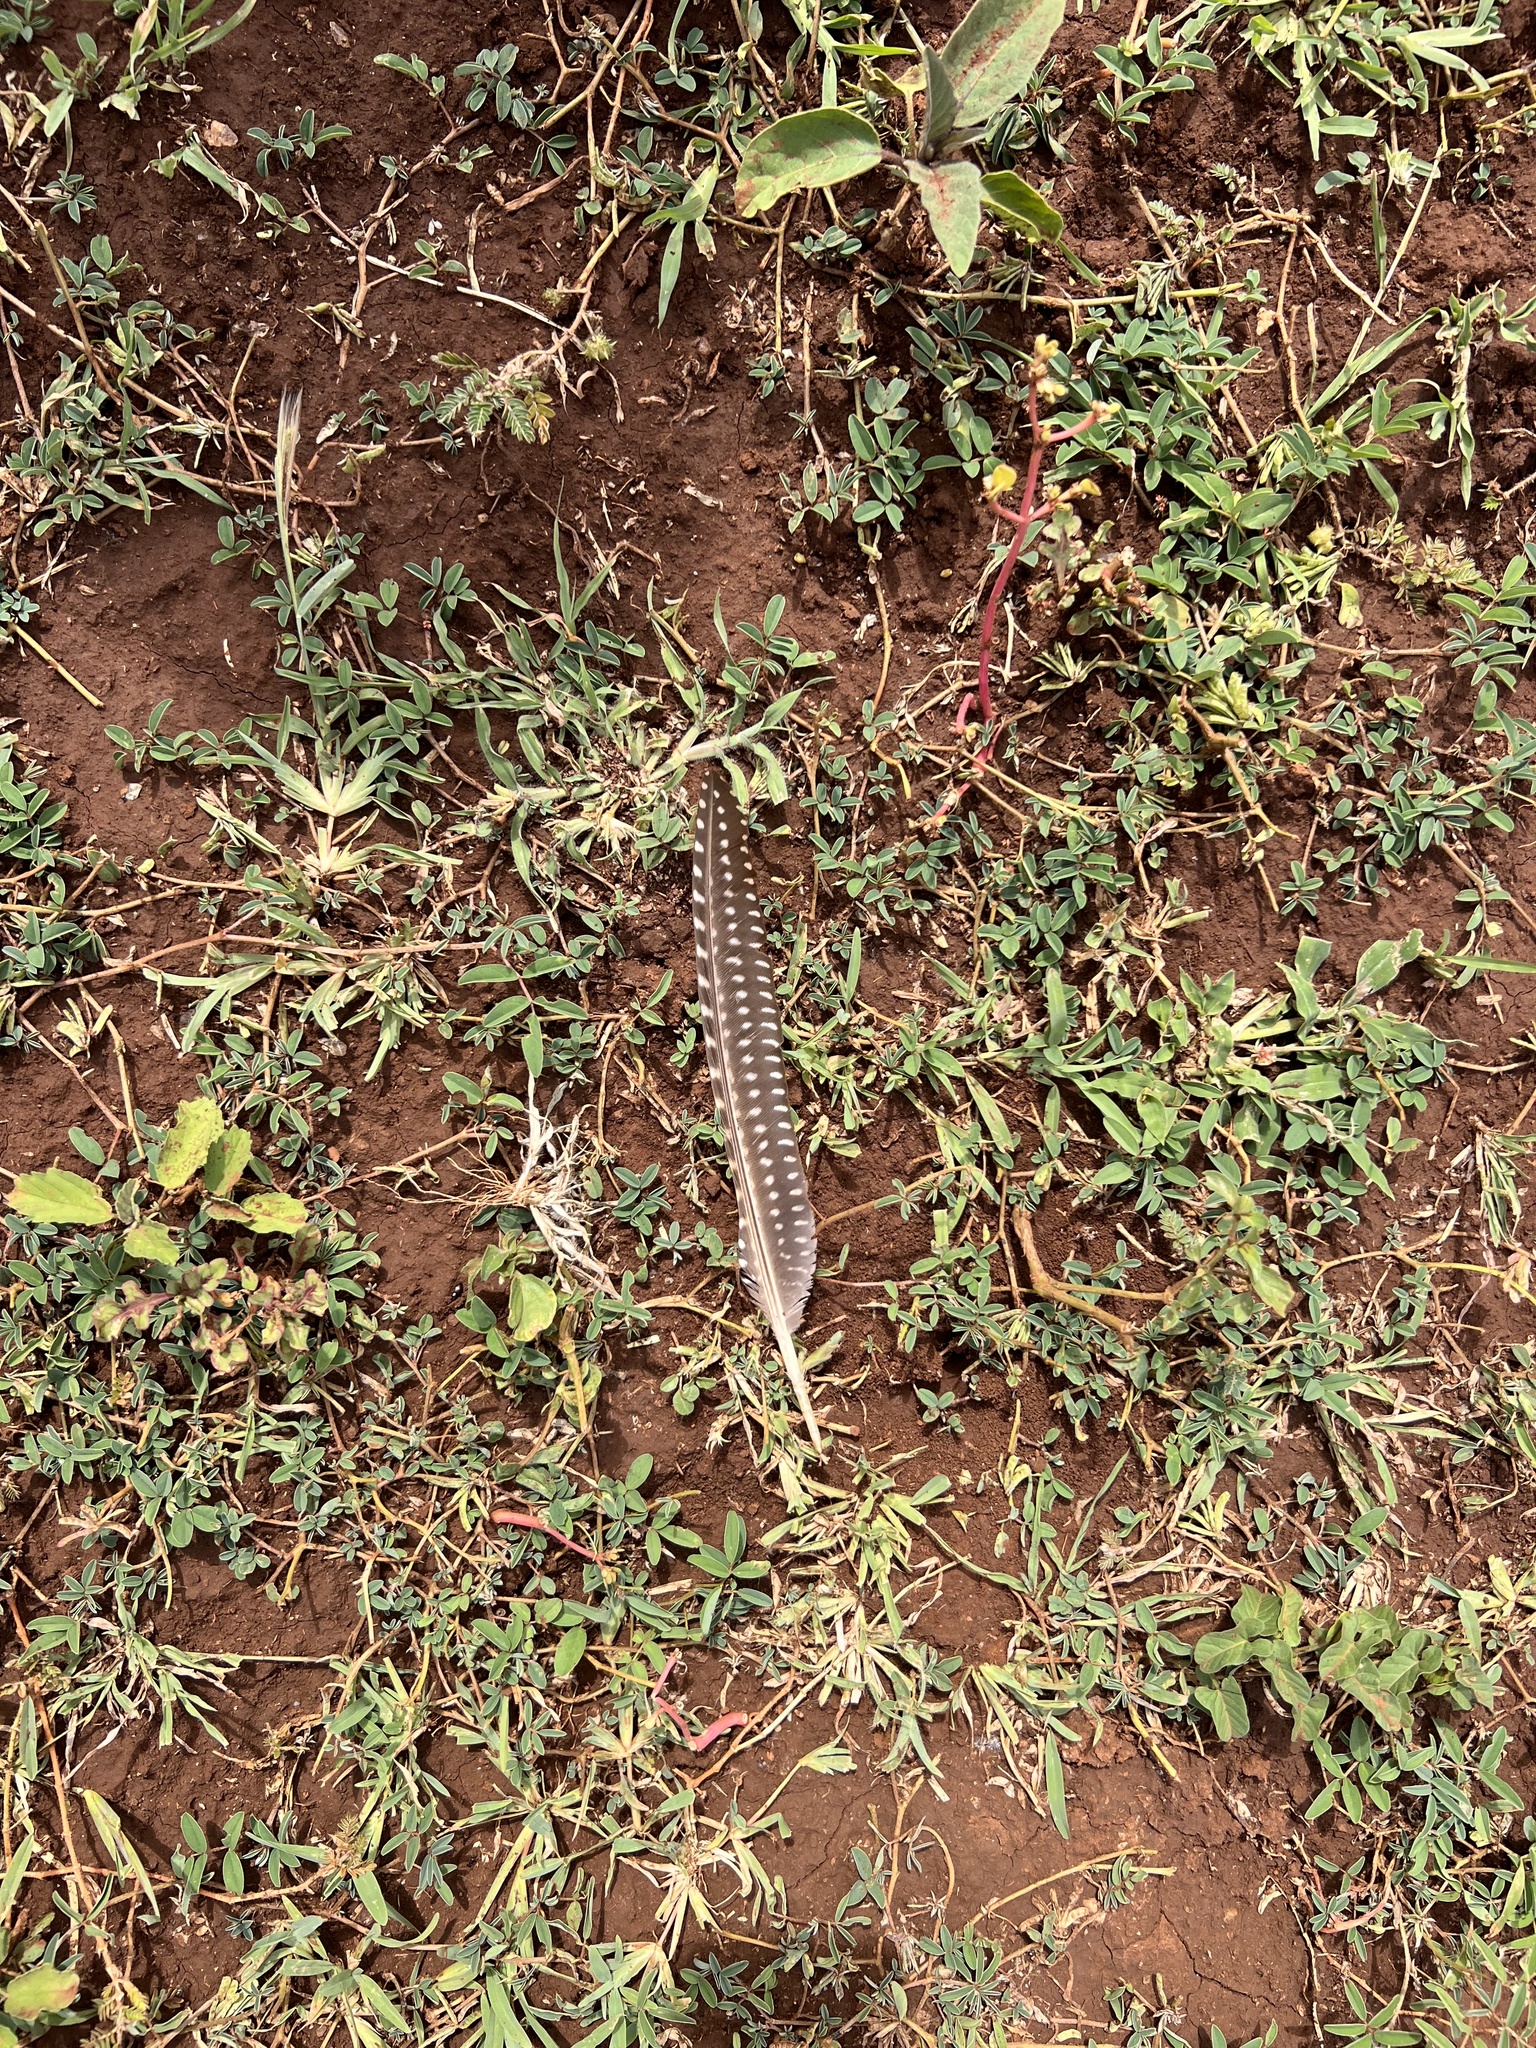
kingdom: Animalia
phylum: Chordata
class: Aves
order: Galliformes
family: Numididae
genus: Numida
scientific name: Numida meleagris
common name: Helmeted guineafowl
